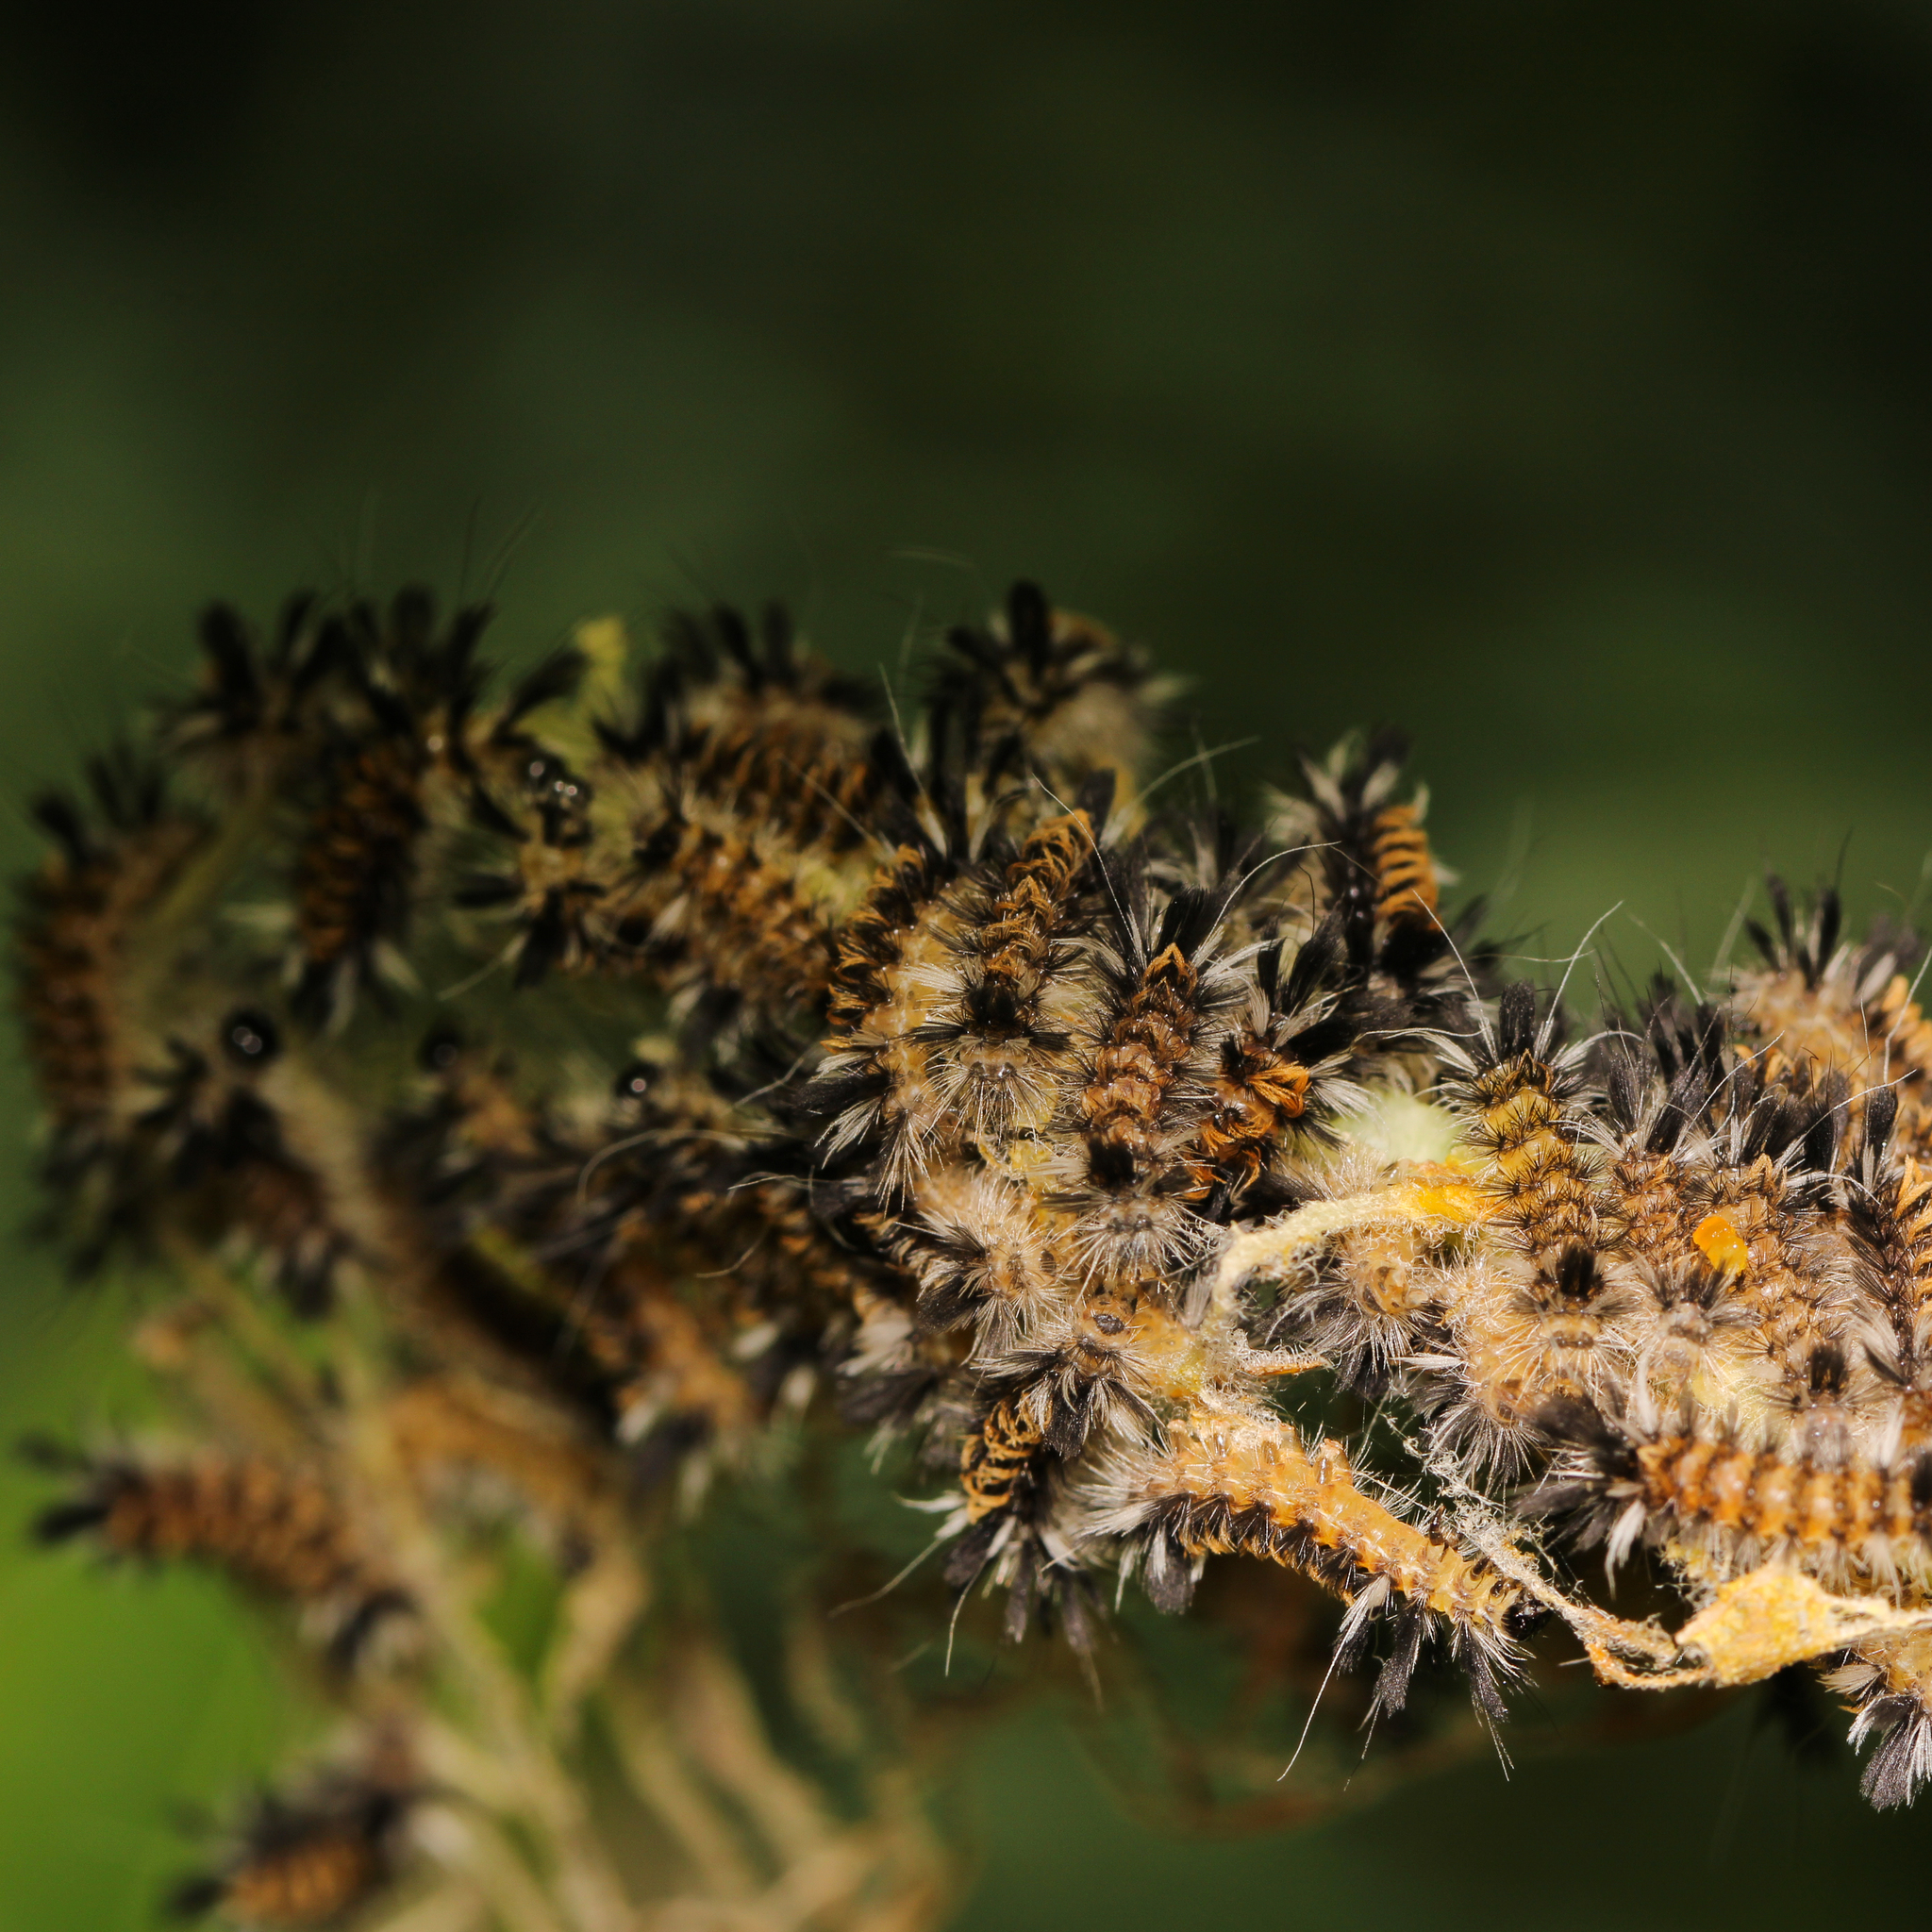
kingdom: Animalia
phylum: Arthropoda
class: Insecta
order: Lepidoptera
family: Erebidae
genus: Euchaetes
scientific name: Euchaetes egle
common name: Milkweed tussock moth
